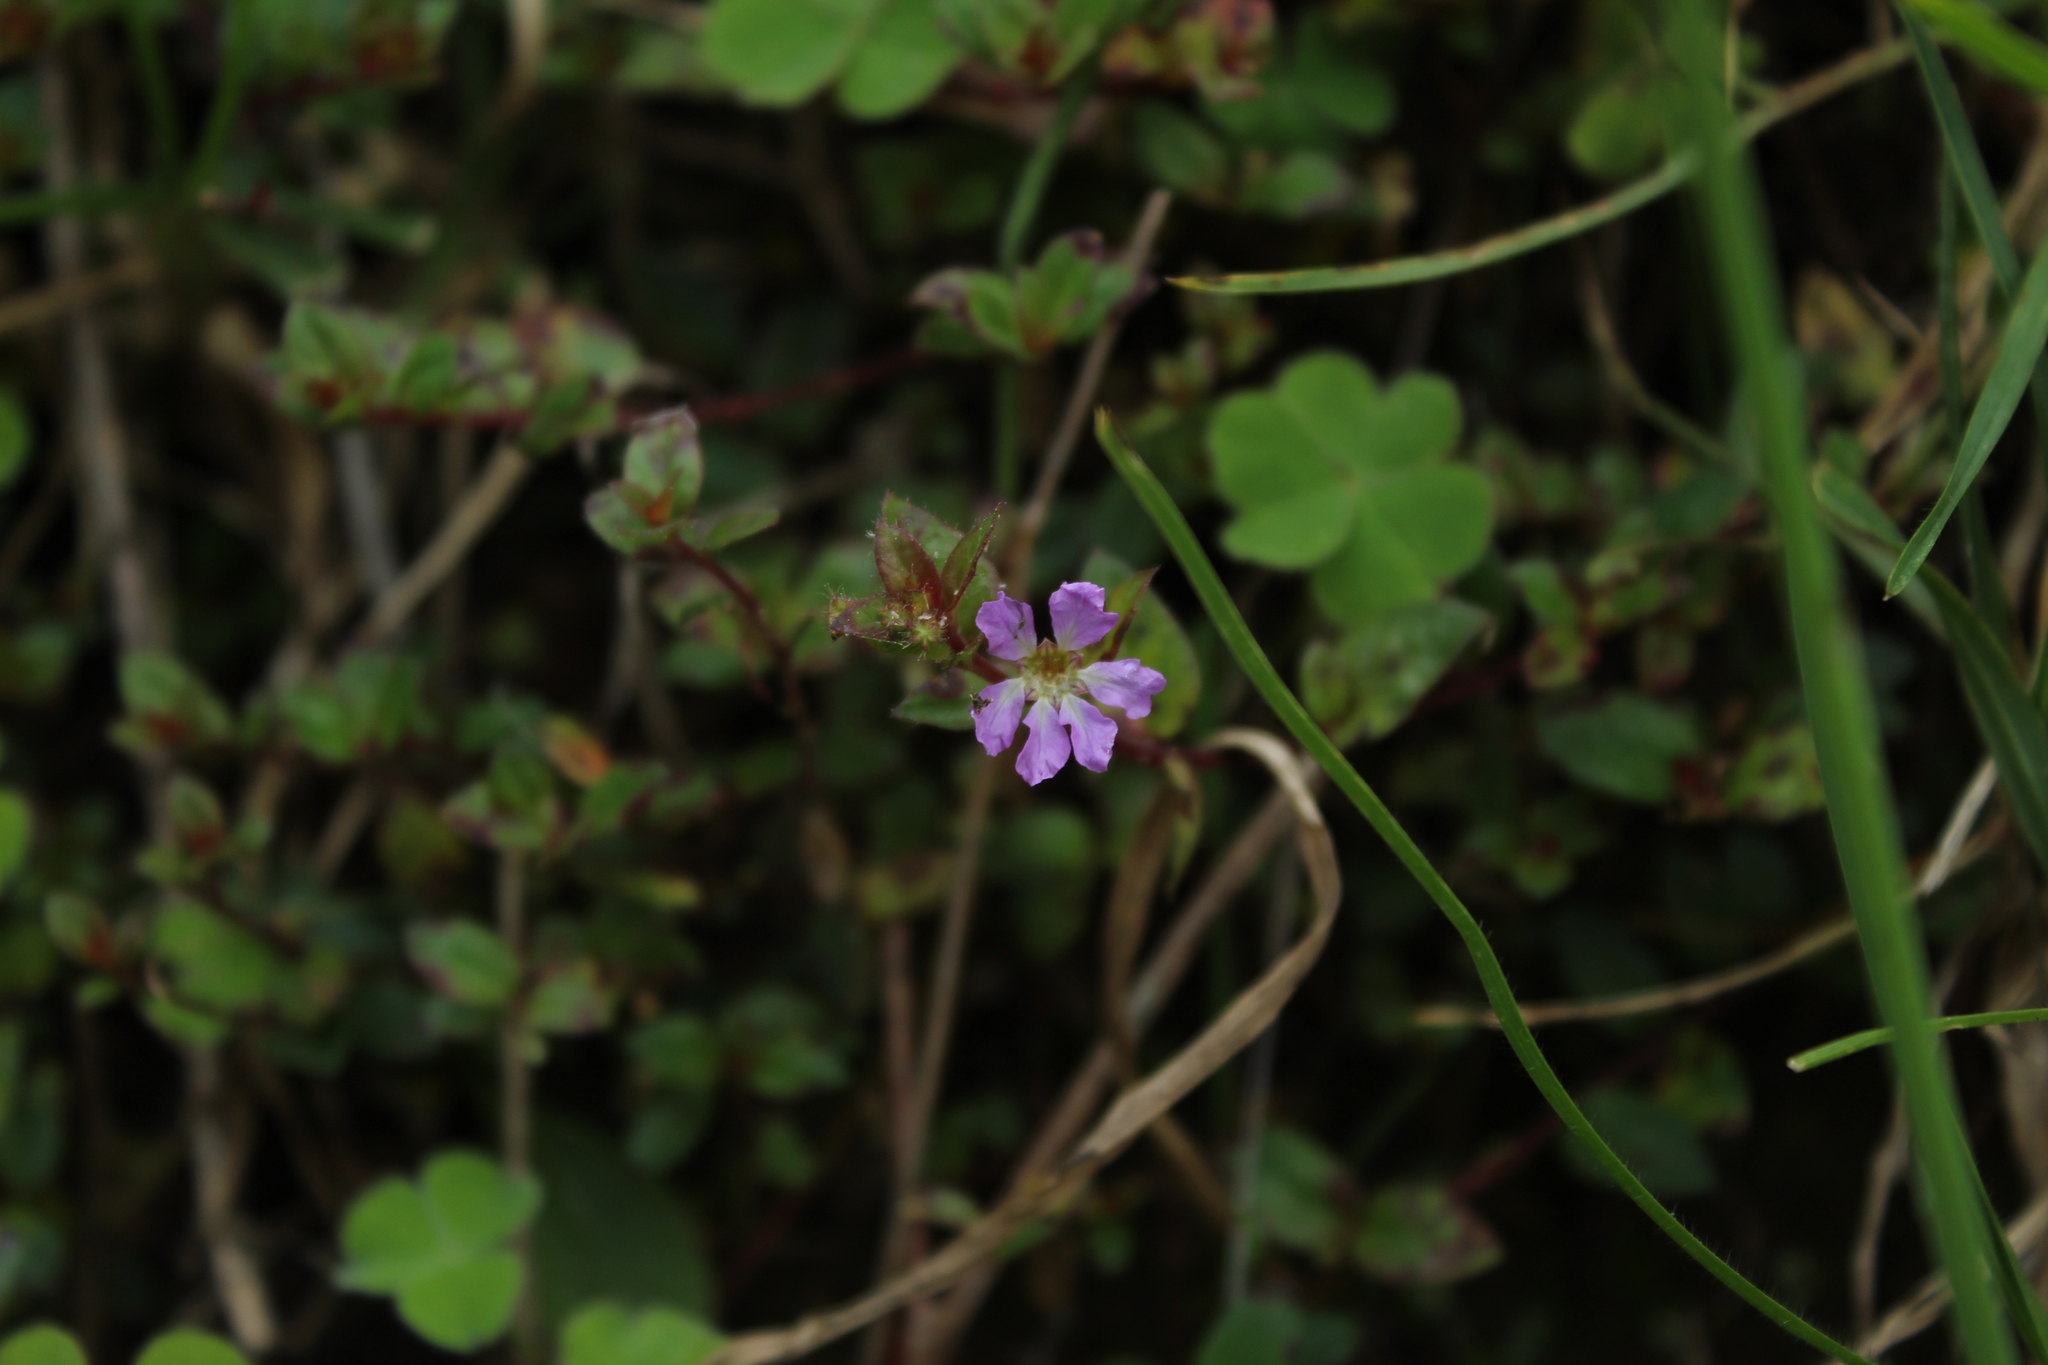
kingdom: Plantae
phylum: Tracheophyta
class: Magnoliopsida
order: Myrtales
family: Lythraceae
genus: Cuphea
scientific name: Cuphea ciliata
